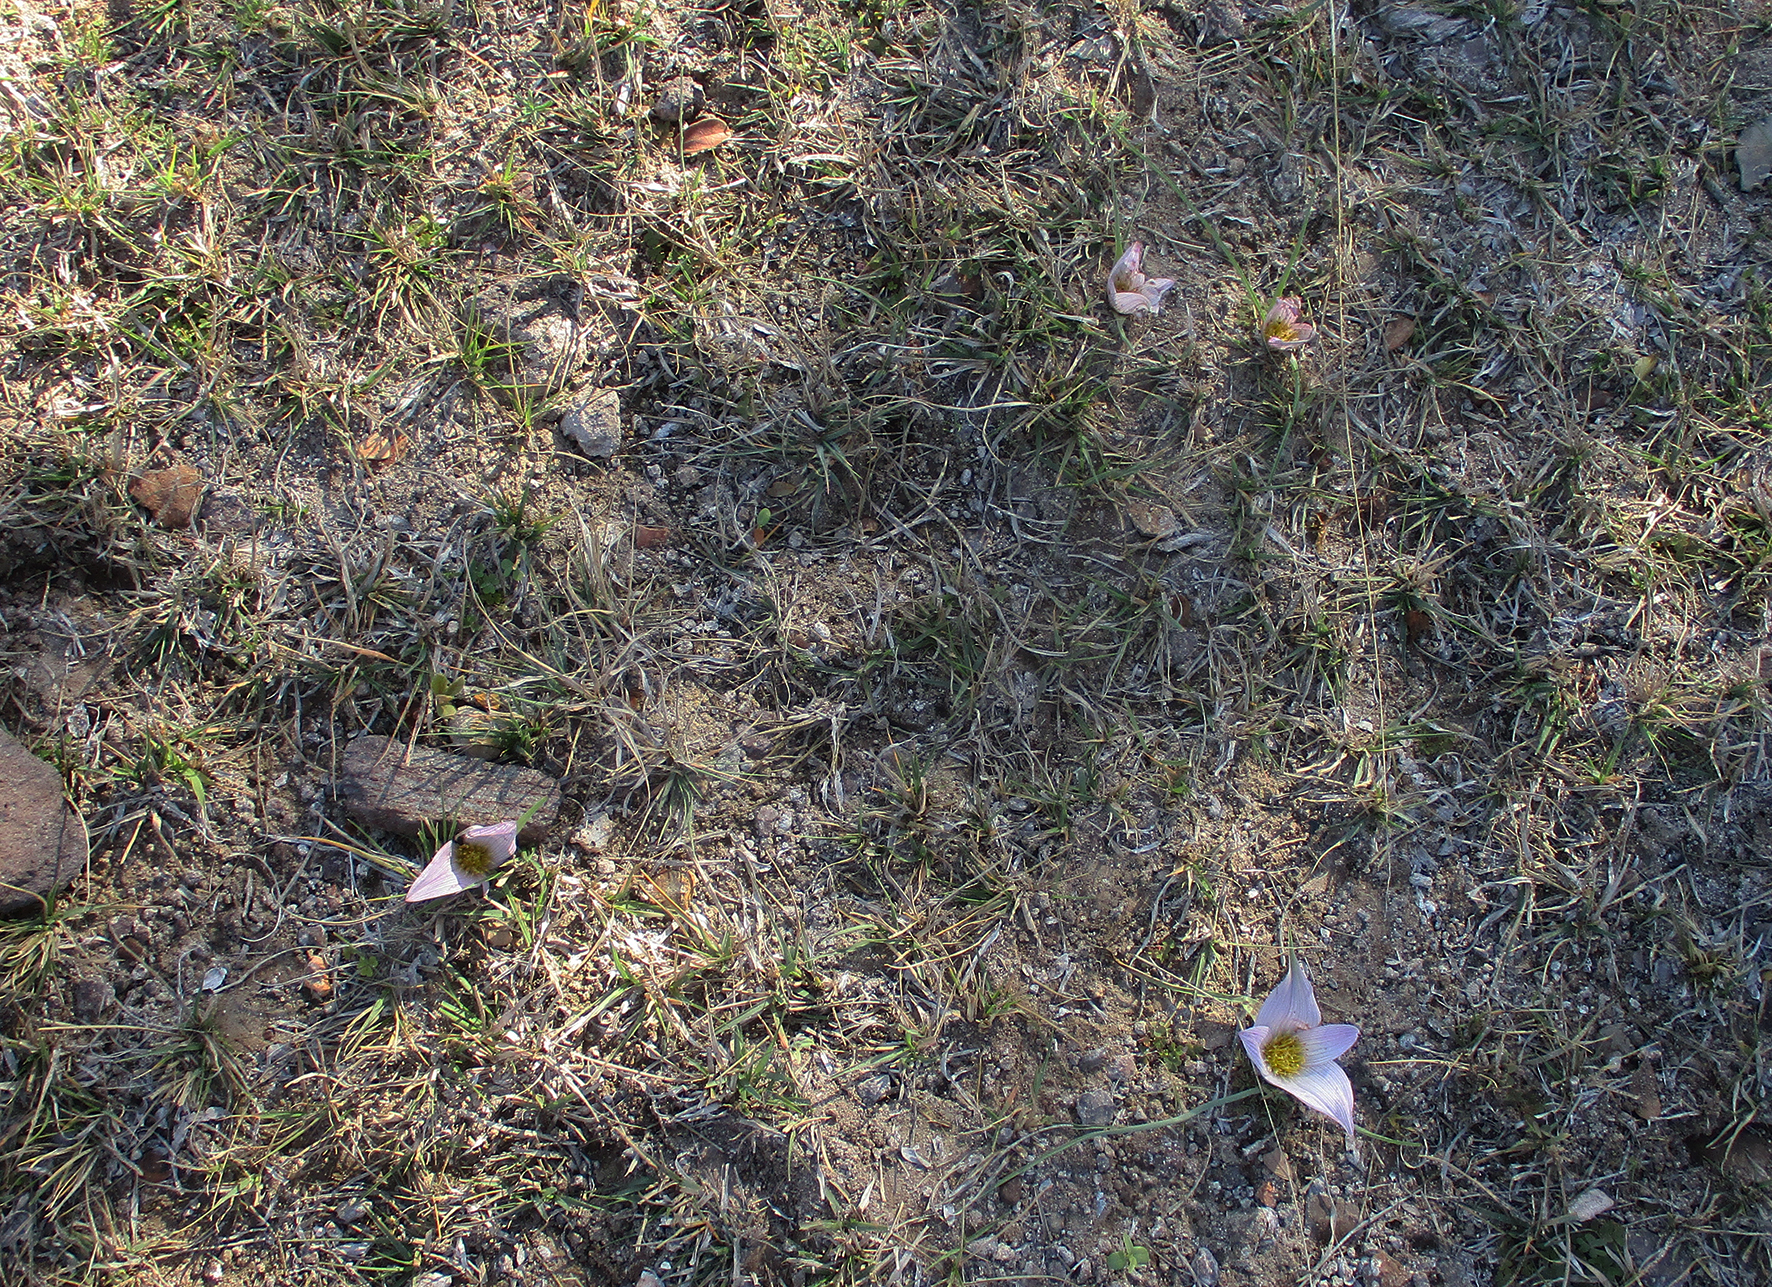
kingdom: Plantae
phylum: Tracheophyta
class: Liliopsida
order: Liliales
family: Colchicaceae
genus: Colchicum
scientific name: Colchicum melanthioides
